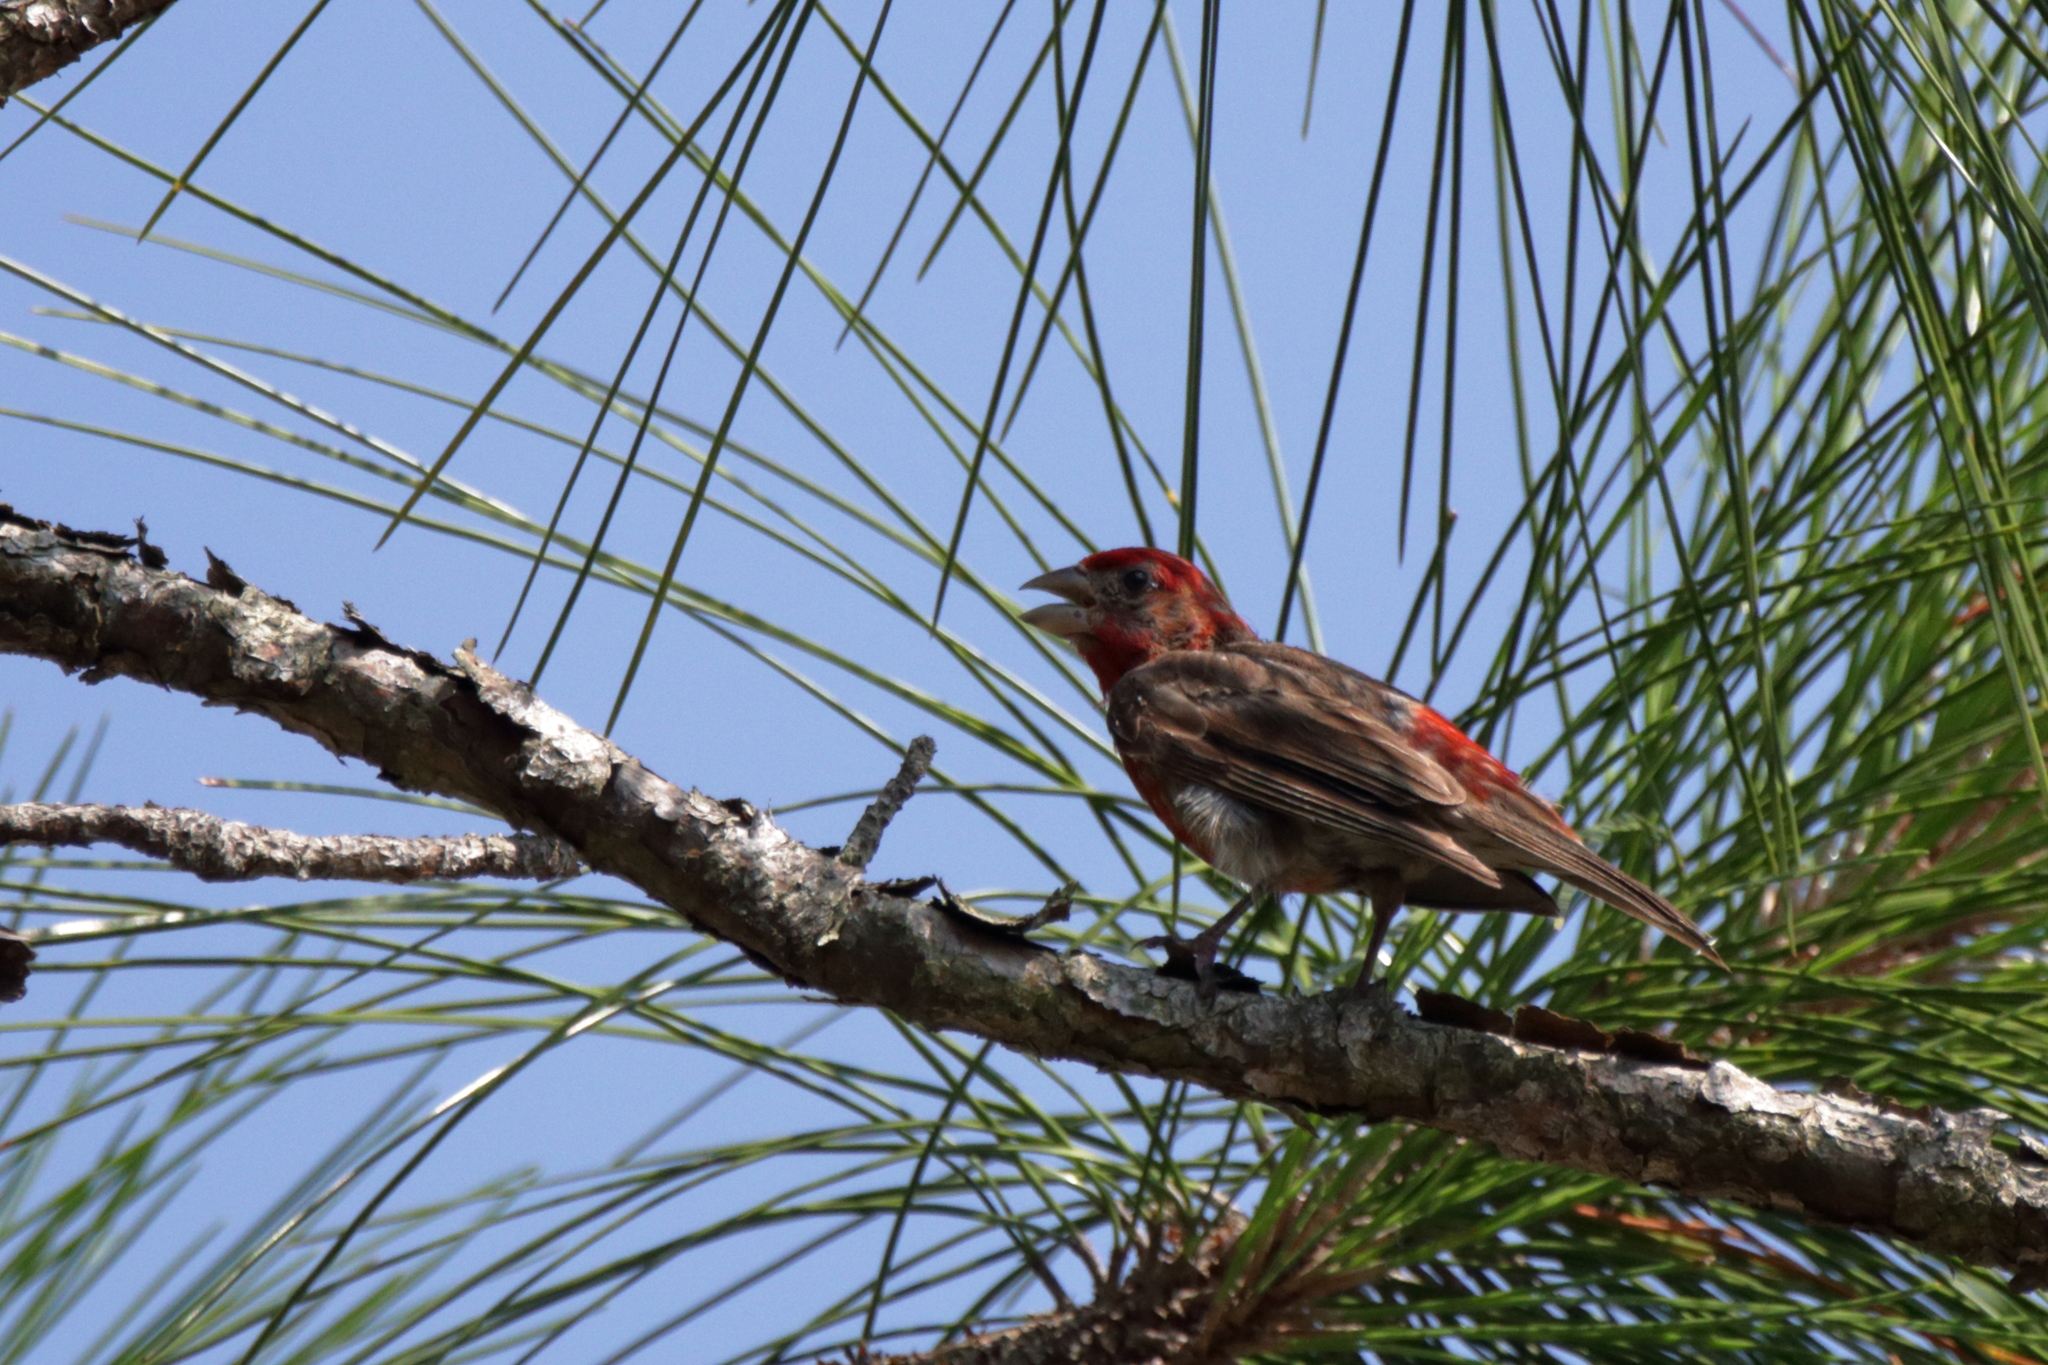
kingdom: Animalia
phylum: Chordata
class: Aves
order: Passeriformes
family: Fringillidae
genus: Haemorhous
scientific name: Haemorhous mexicanus
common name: House finch
